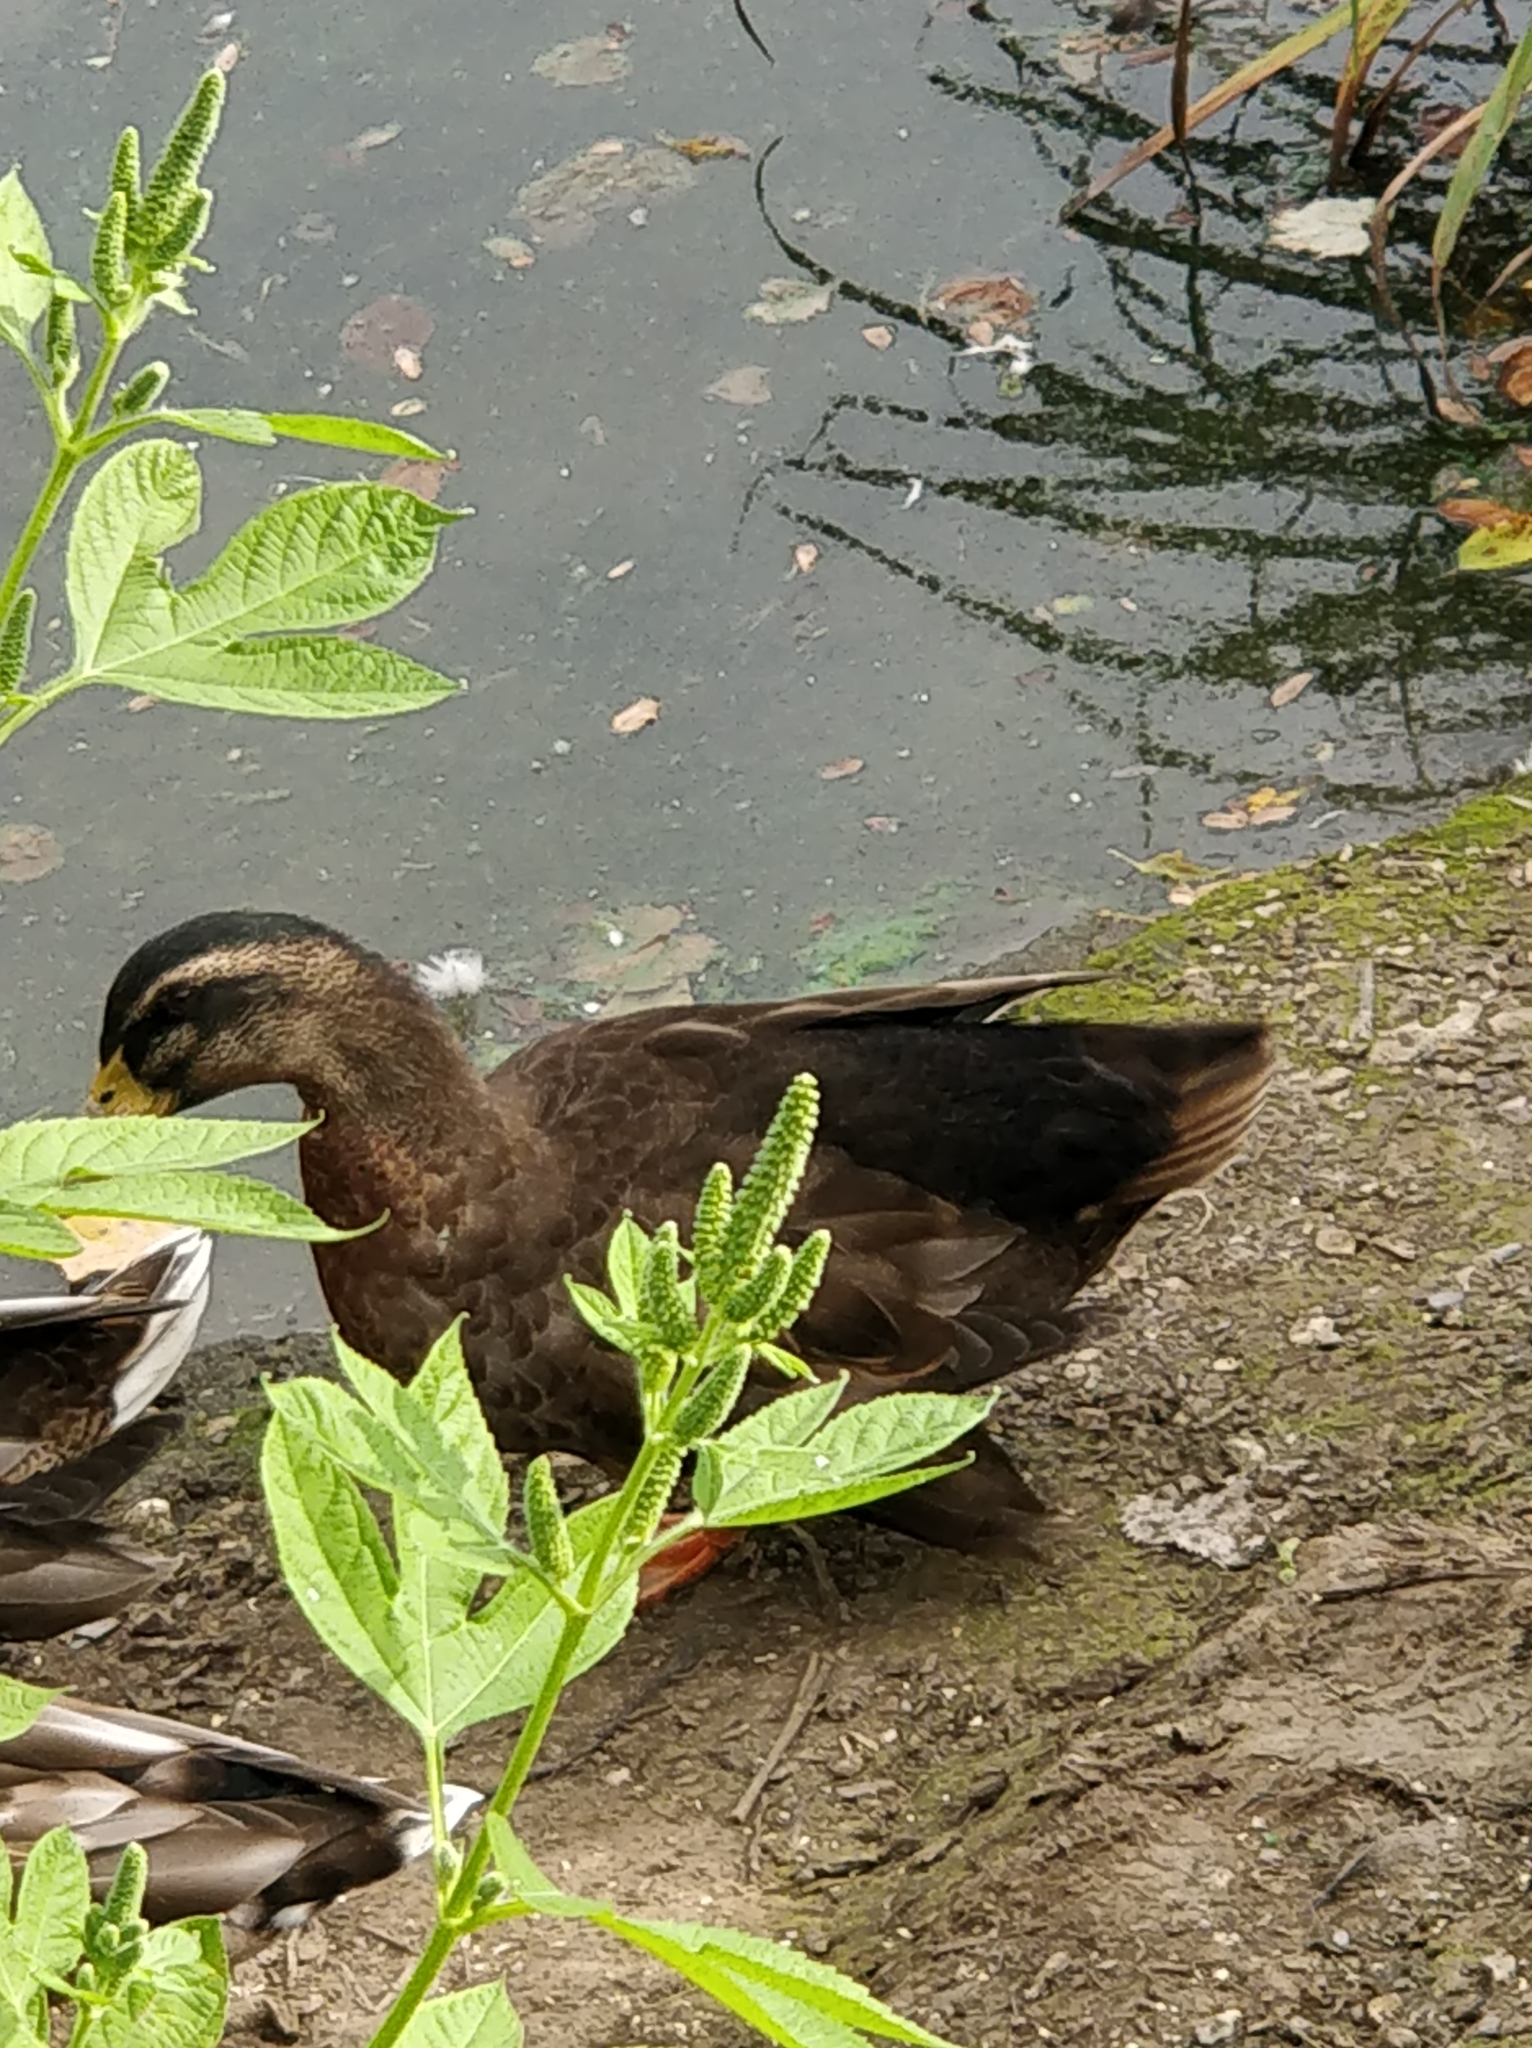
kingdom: Animalia
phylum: Chordata
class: Aves
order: Anseriformes
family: Anatidae
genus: Anas
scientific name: Anas platyrhynchos
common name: Mallard
